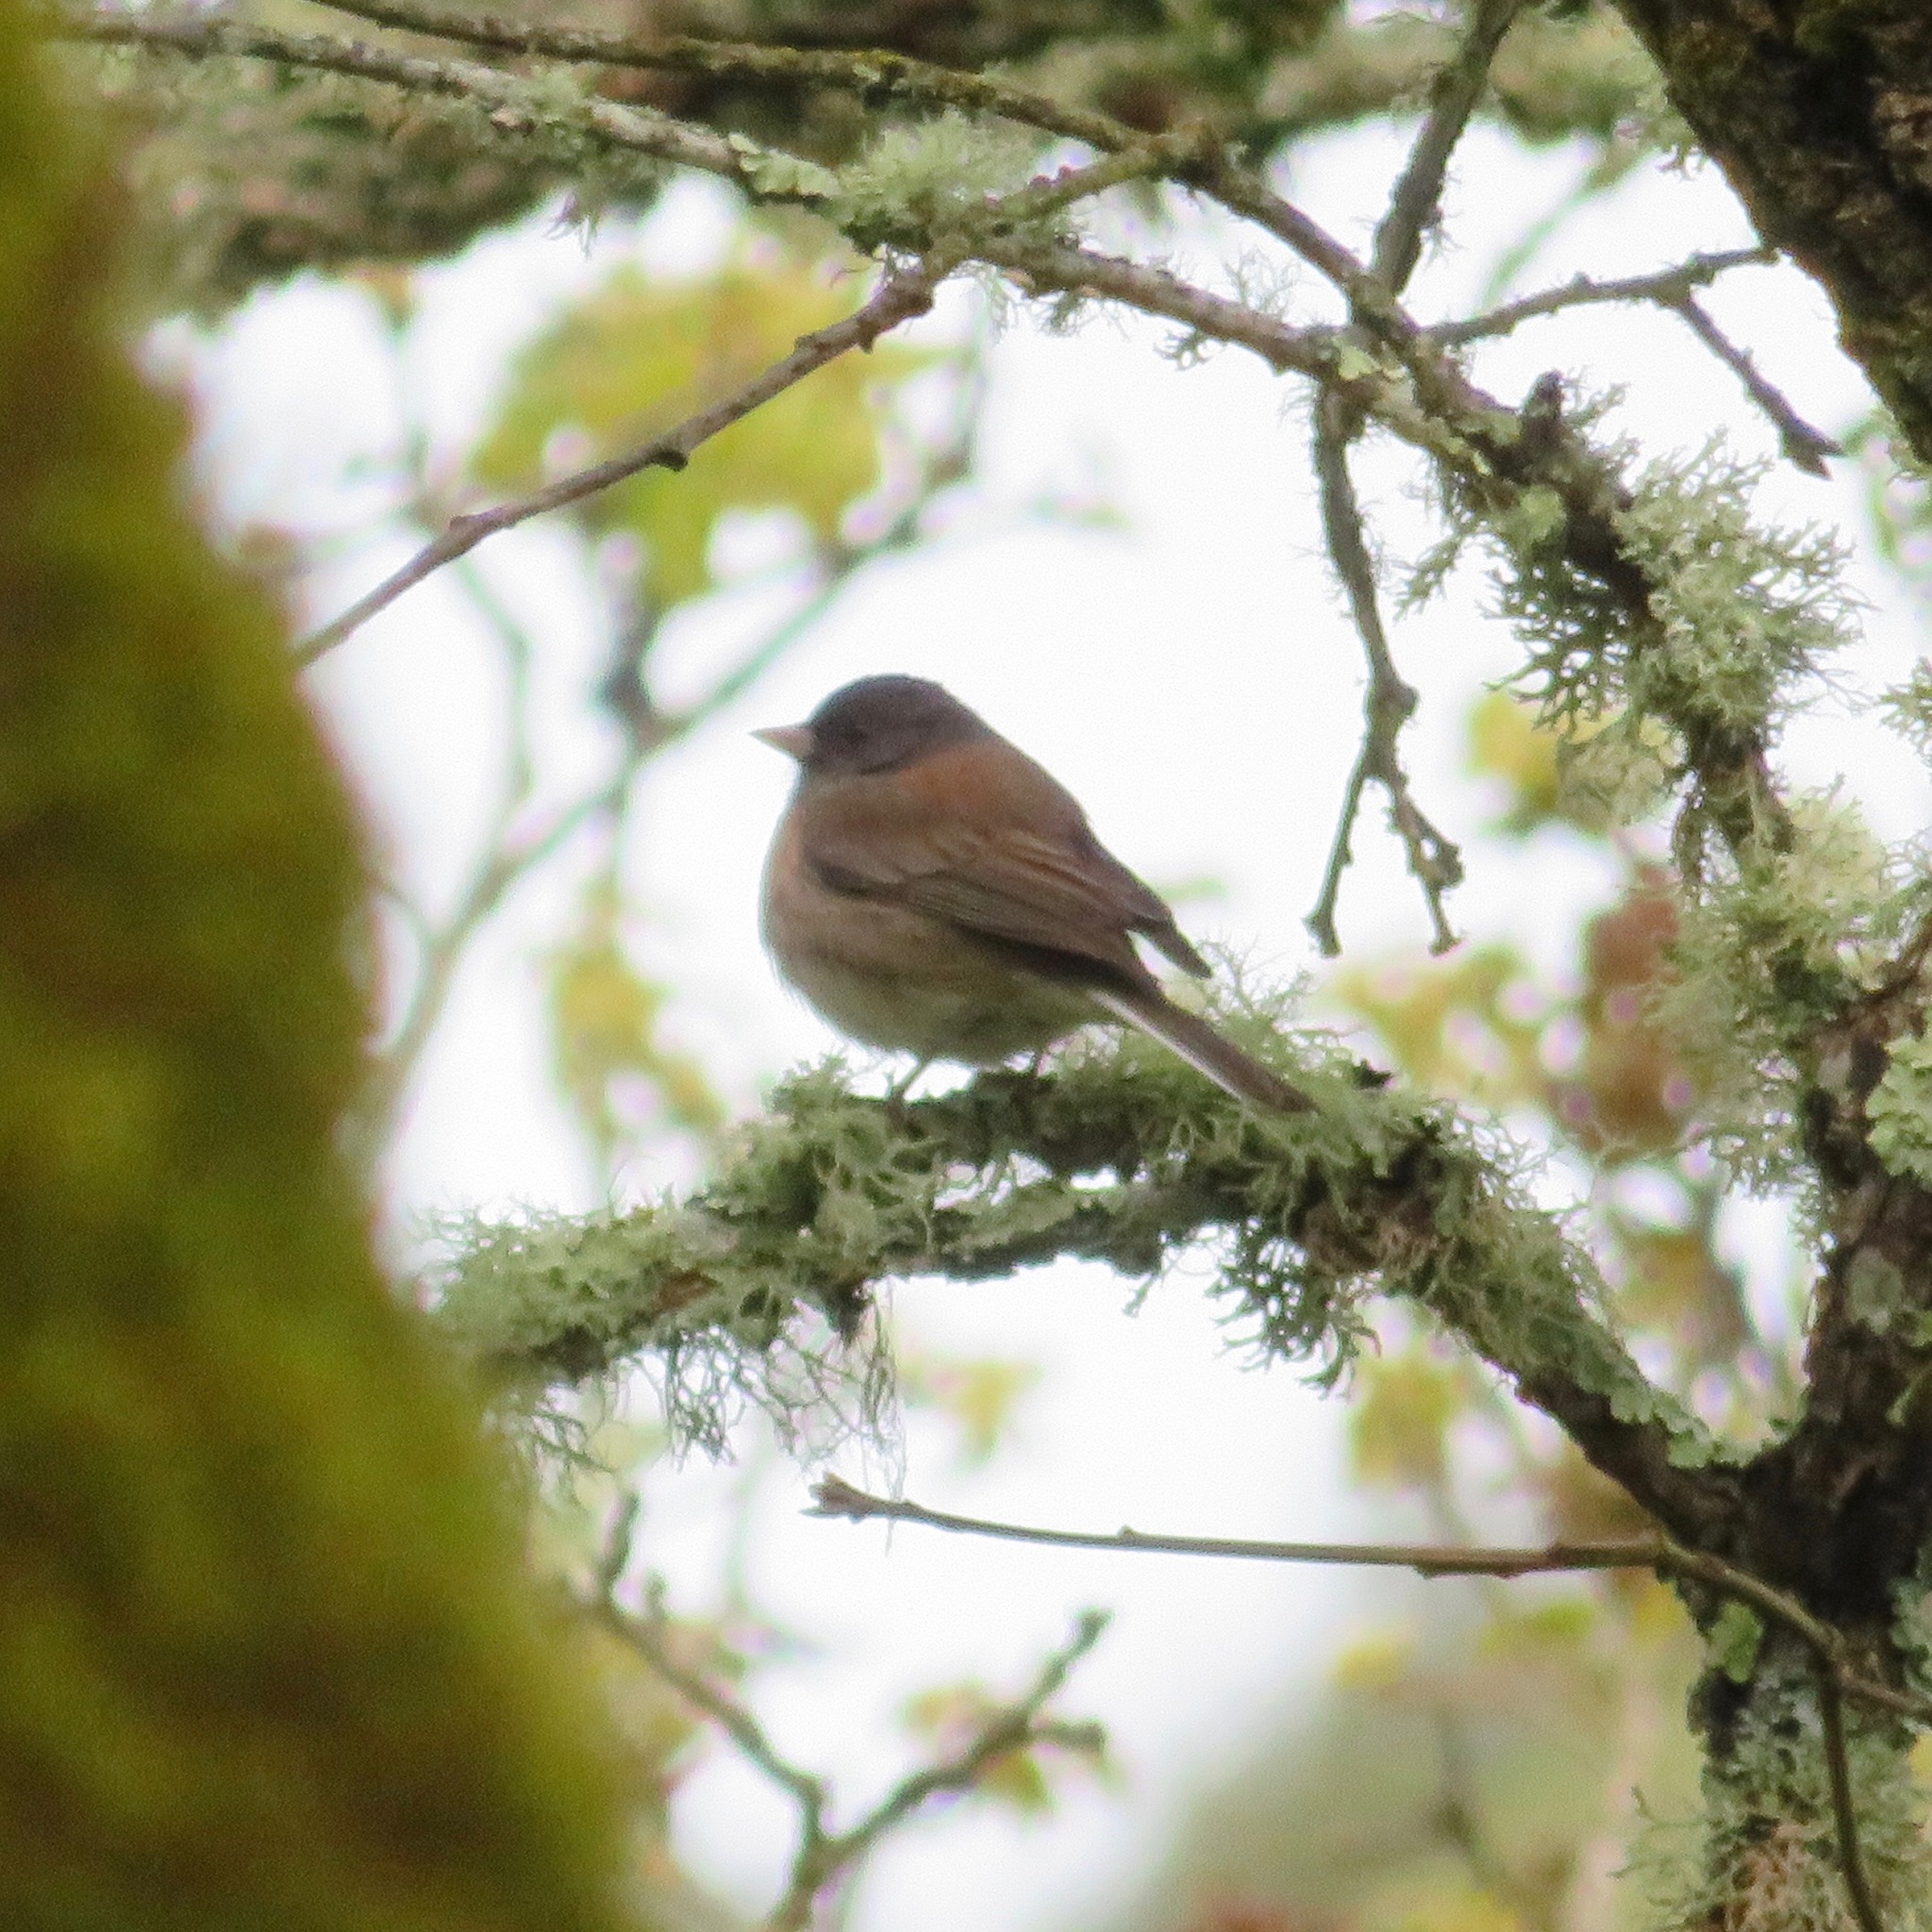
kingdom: Animalia
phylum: Chordata
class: Aves
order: Passeriformes
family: Passerellidae
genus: Junco
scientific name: Junco hyemalis
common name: Dark-eyed junco
